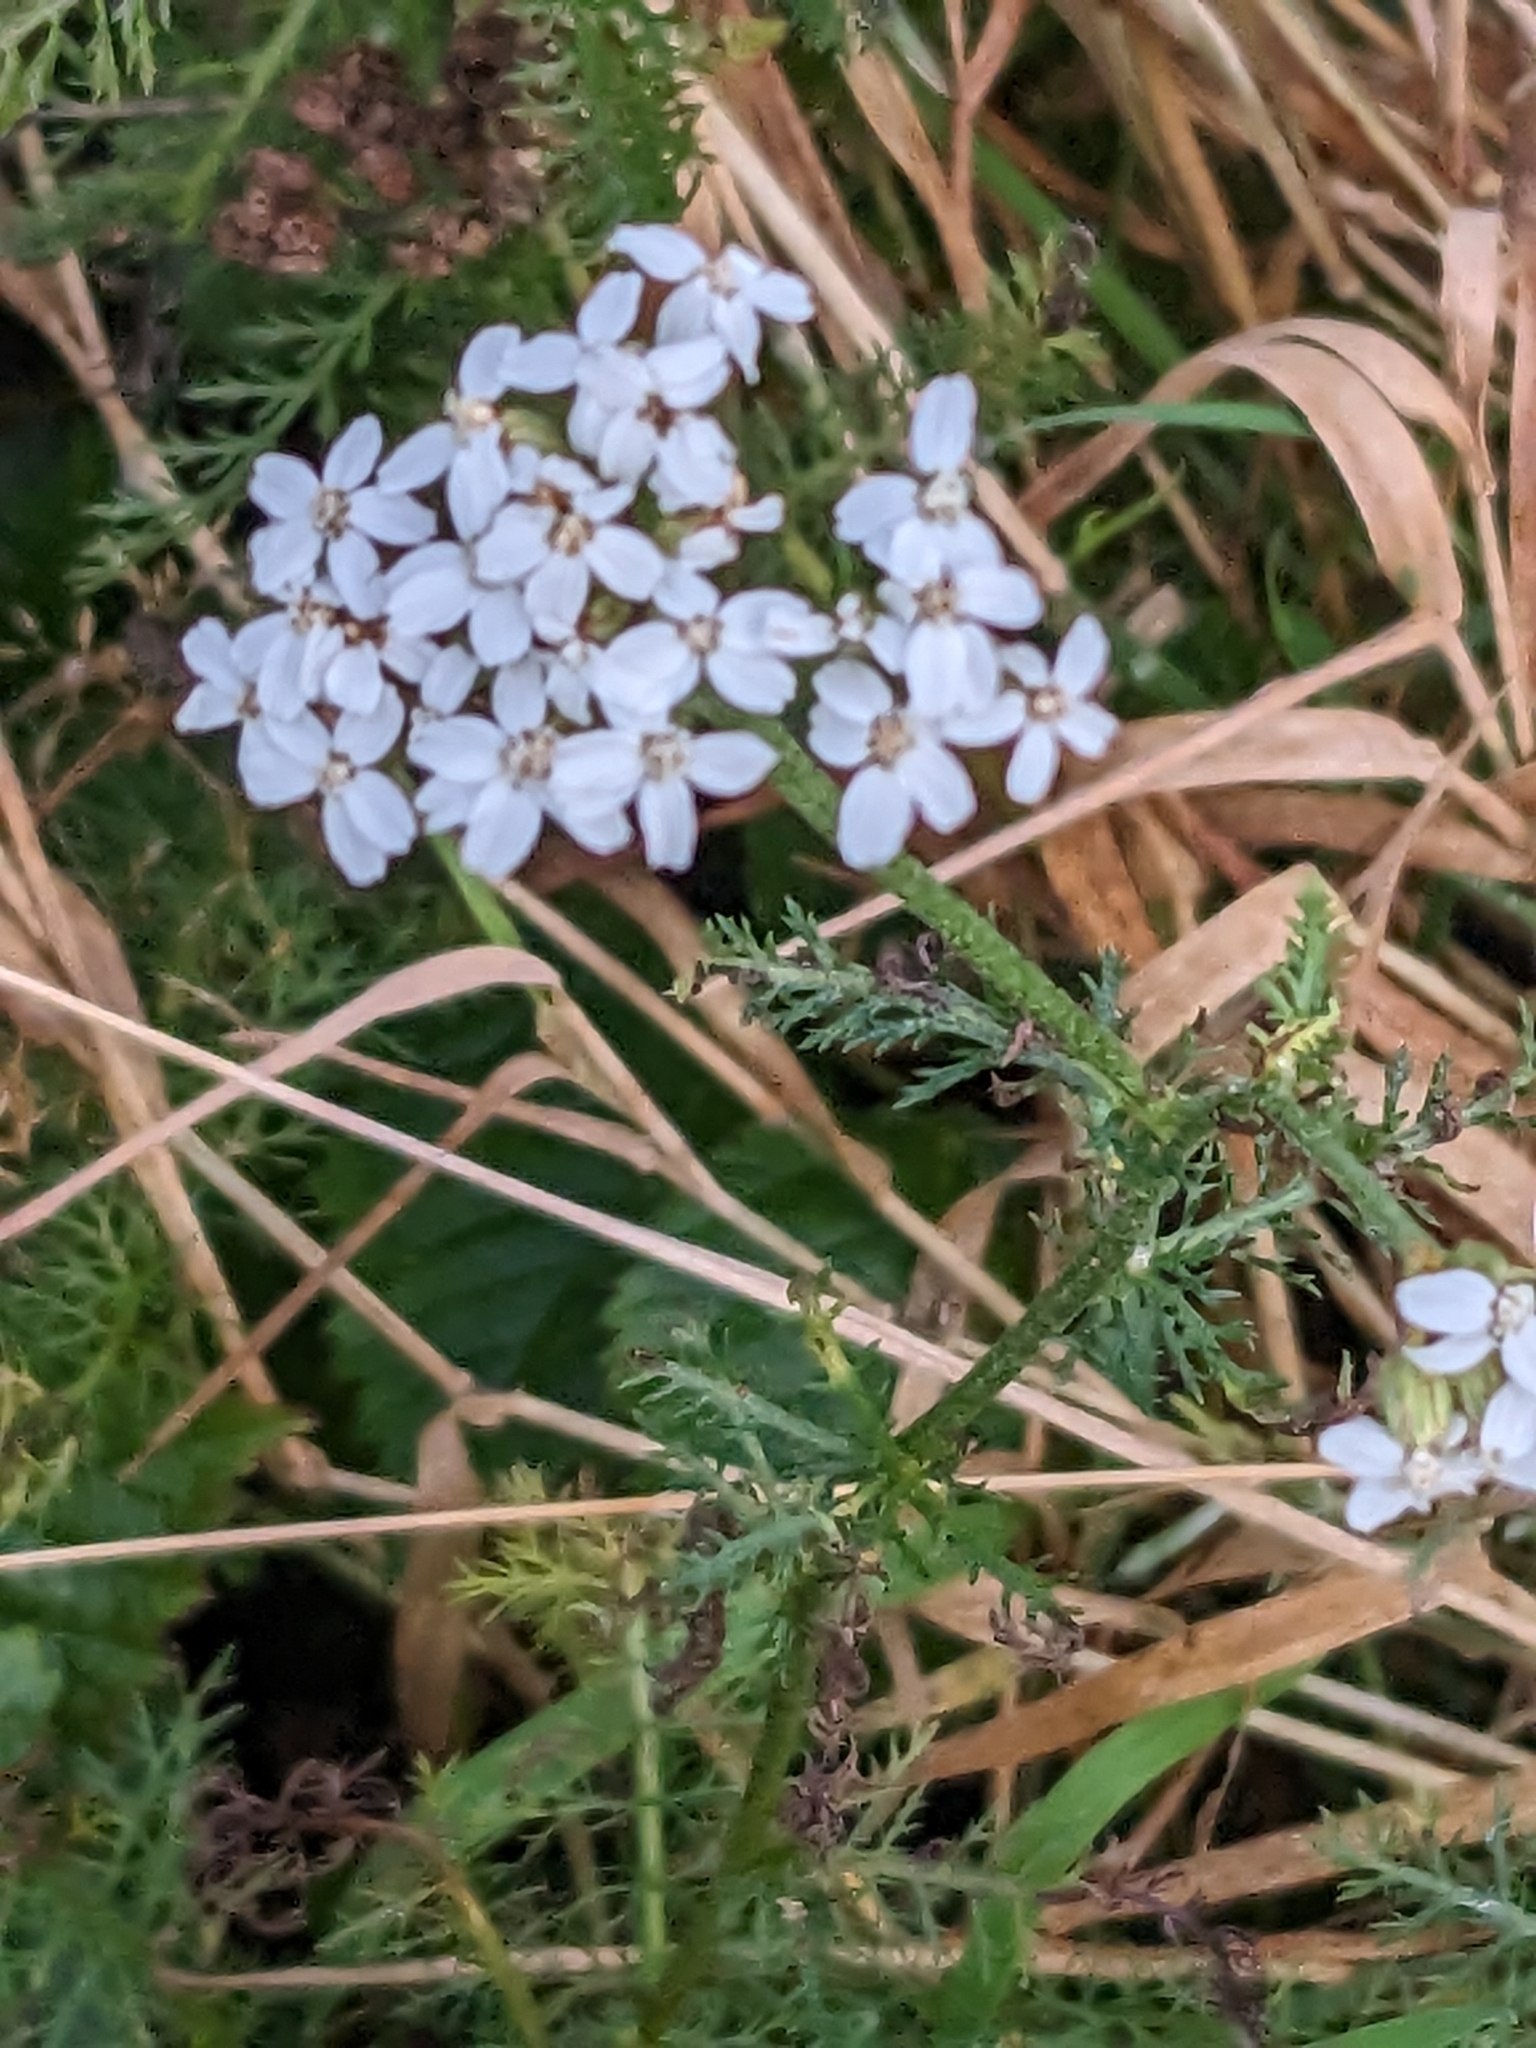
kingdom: Plantae
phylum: Tracheophyta
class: Magnoliopsida
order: Asterales
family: Asteraceae
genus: Achillea
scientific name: Achillea millefolium
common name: Yarrow
